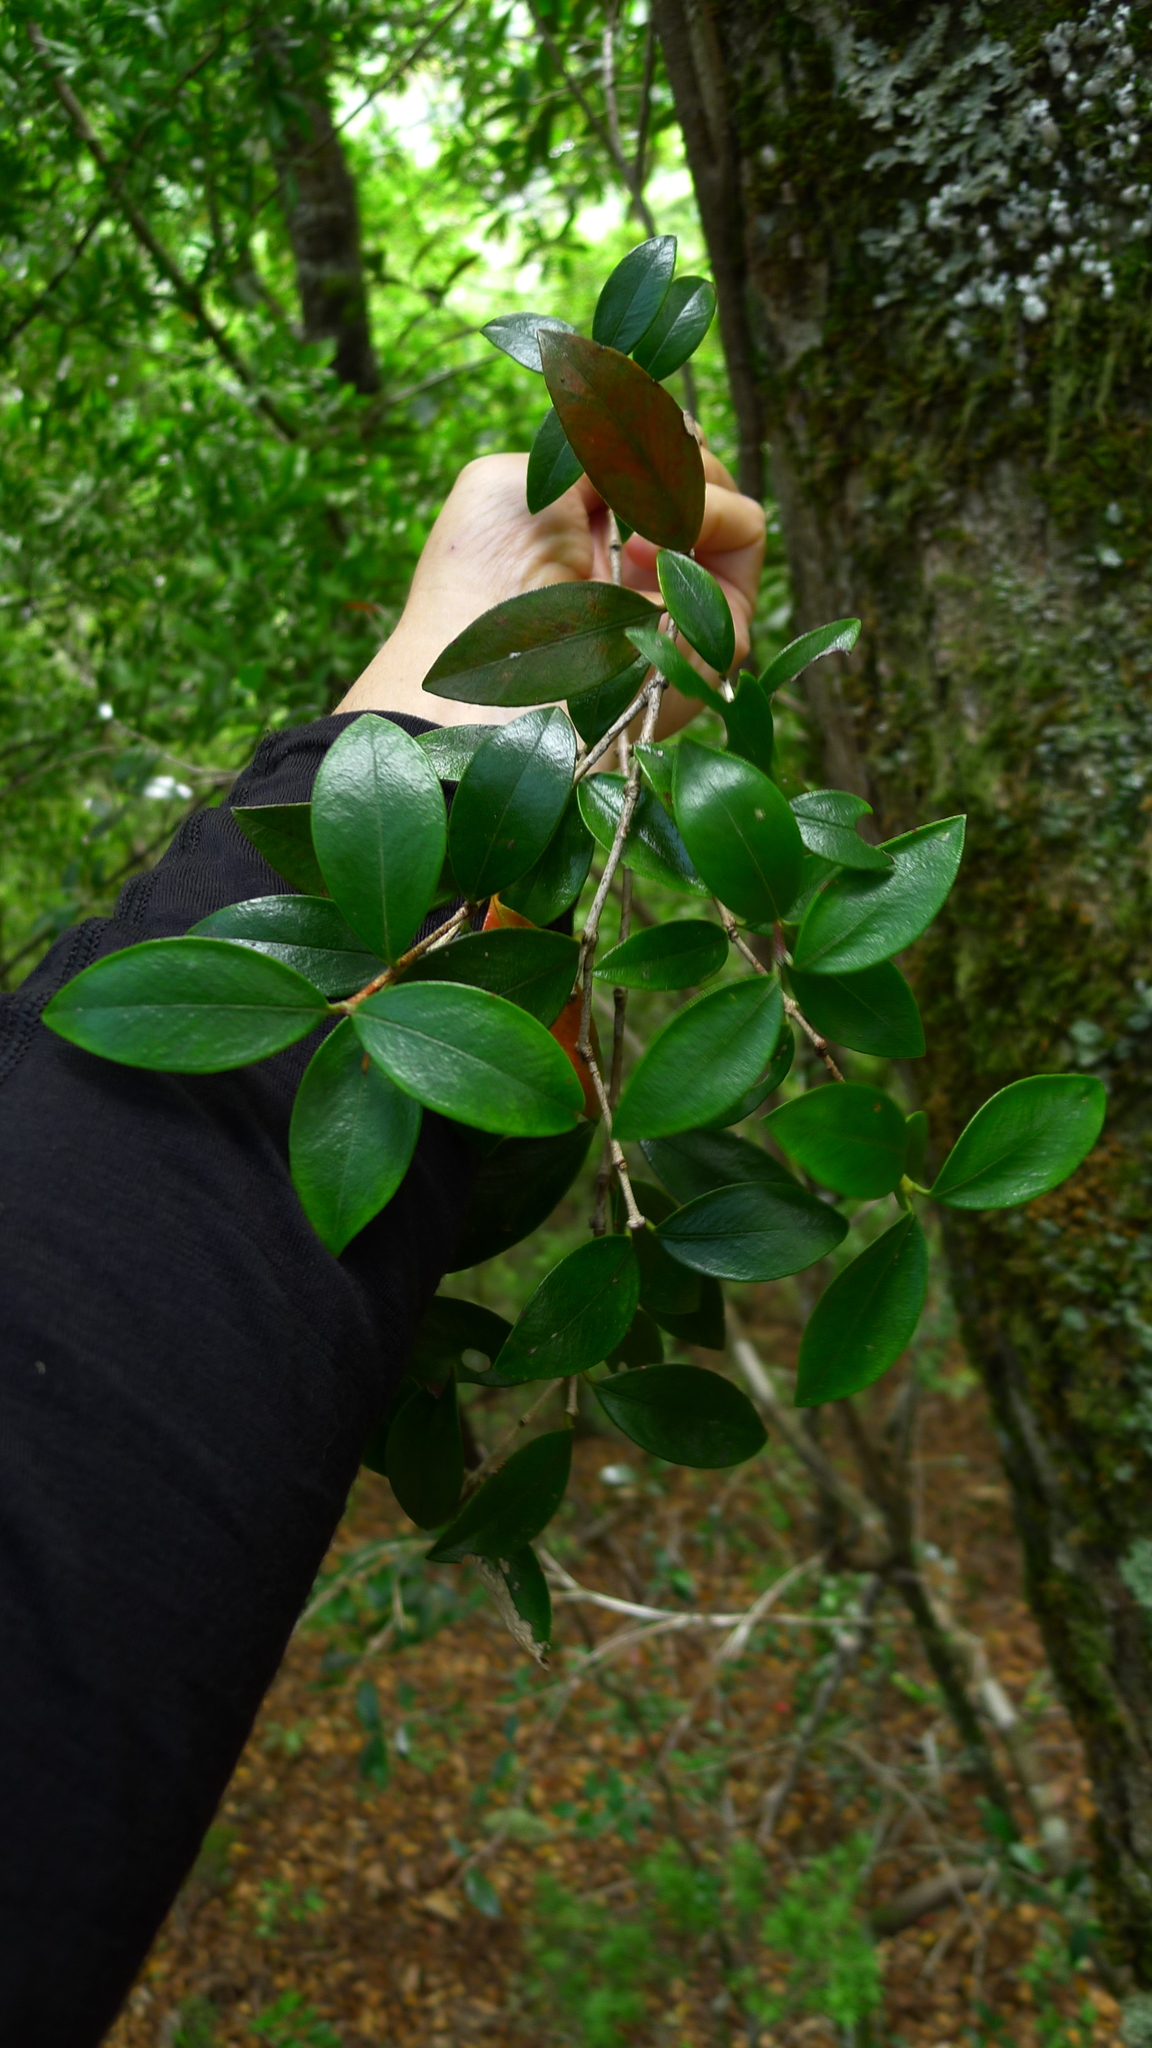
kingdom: Plantae
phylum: Tracheophyta
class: Magnoliopsida
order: Myrtales
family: Myrtaceae
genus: Metrosideros
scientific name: Metrosideros fulgens
